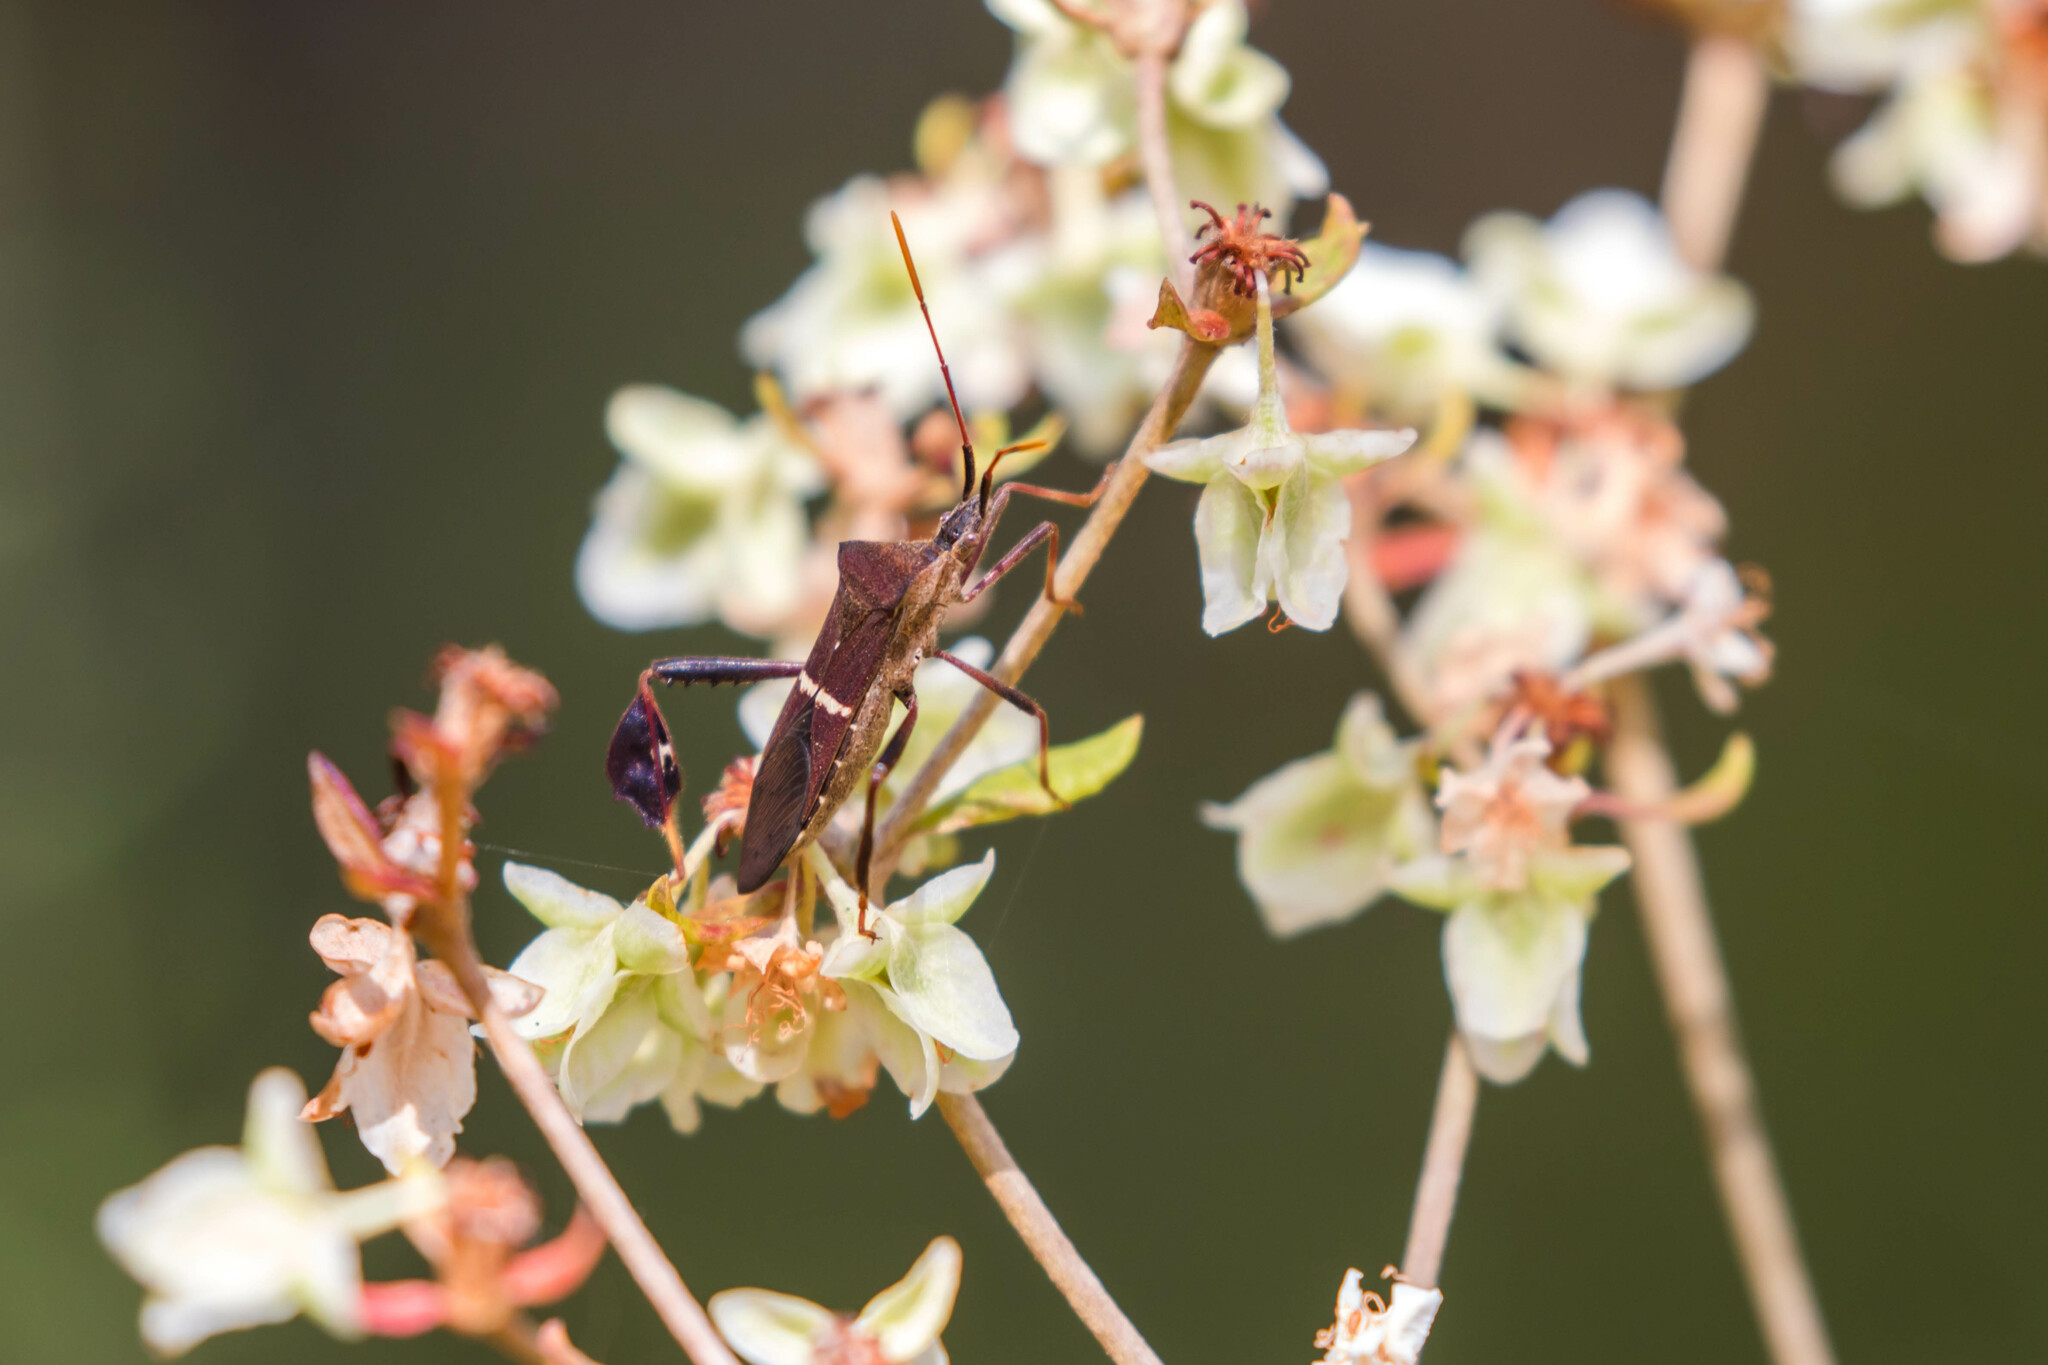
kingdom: Animalia
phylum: Arthropoda
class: Insecta
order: Hemiptera
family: Coreidae
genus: Leptoglossus
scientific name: Leptoglossus phyllopus
